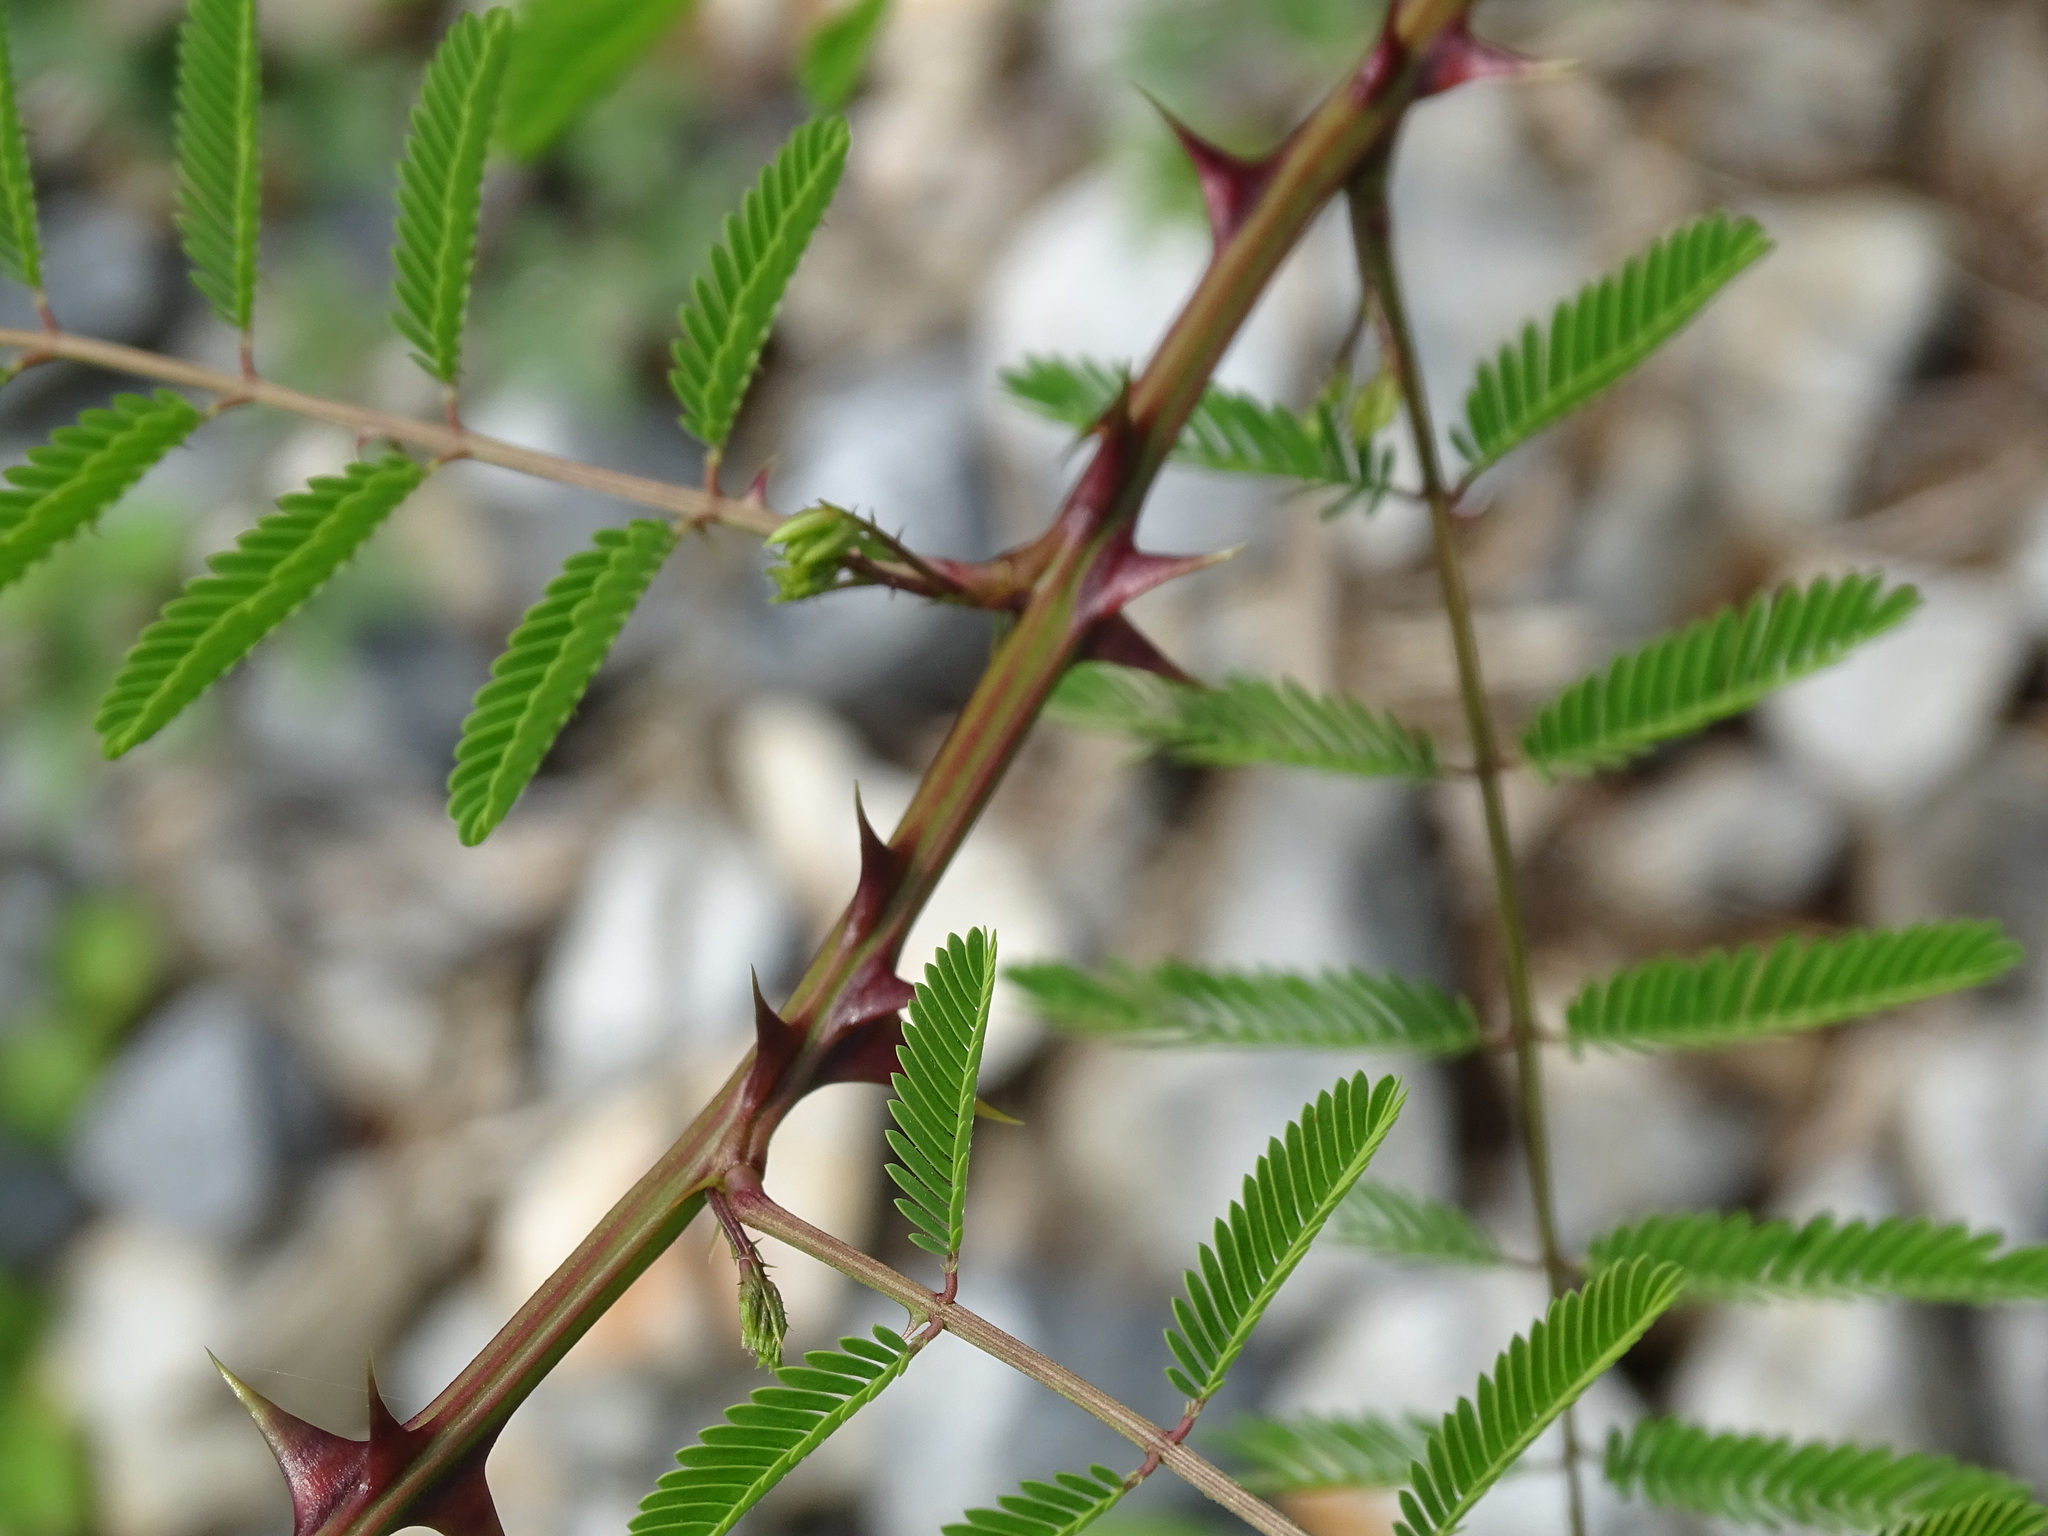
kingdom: Plantae
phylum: Tracheophyta
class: Magnoliopsida
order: Fabales
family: Fabaceae
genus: Mimosa
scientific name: Mimosa acantholoba
